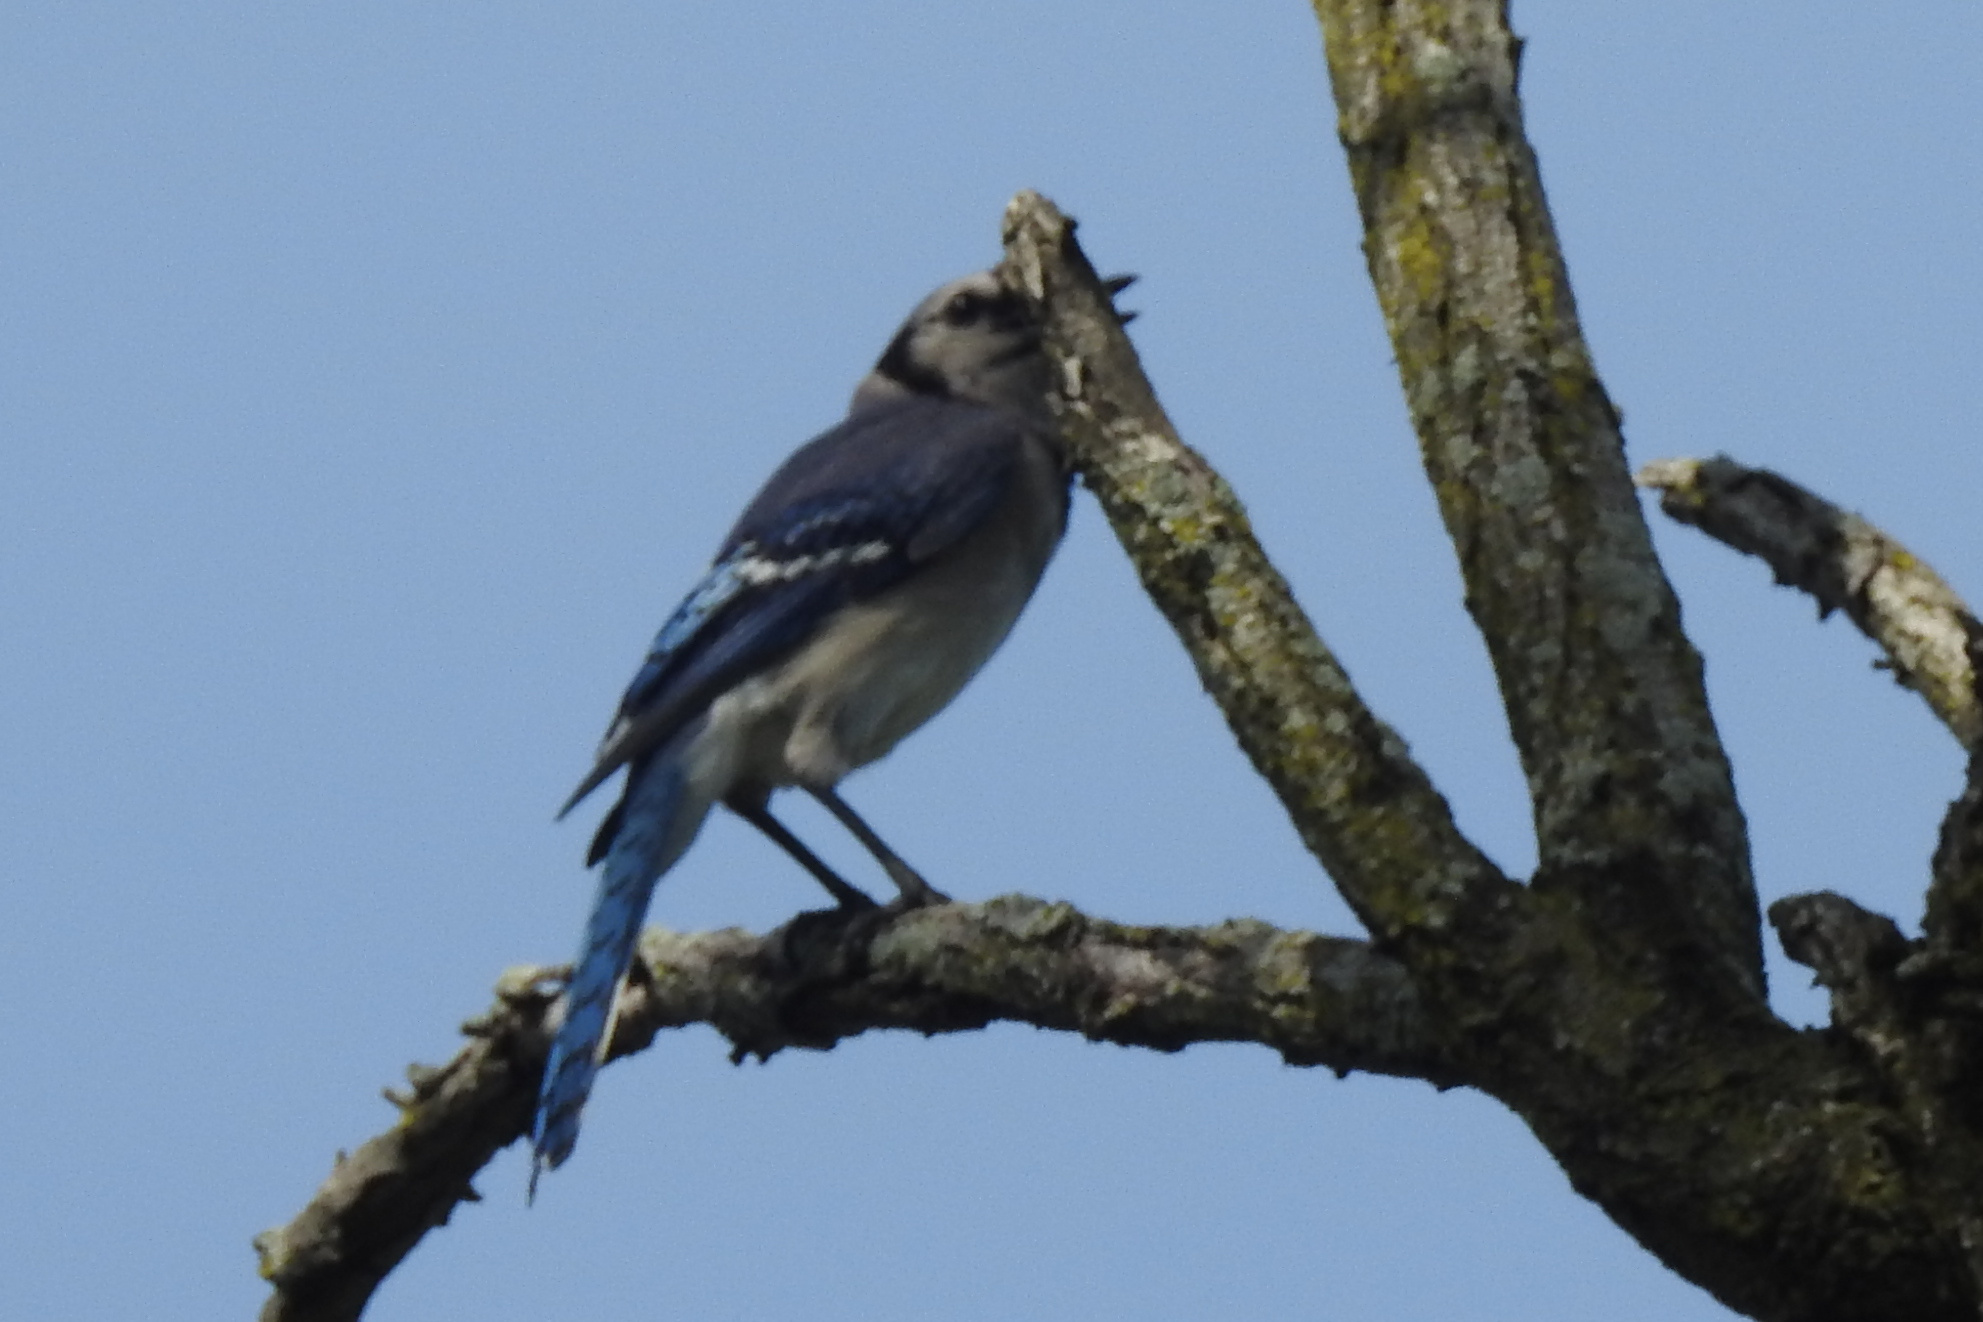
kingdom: Animalia
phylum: Chordata
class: Aves
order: Passeriformes
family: Corvidae
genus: Cyanocitta
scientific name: Cyanocitta cristata
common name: Blue jay
